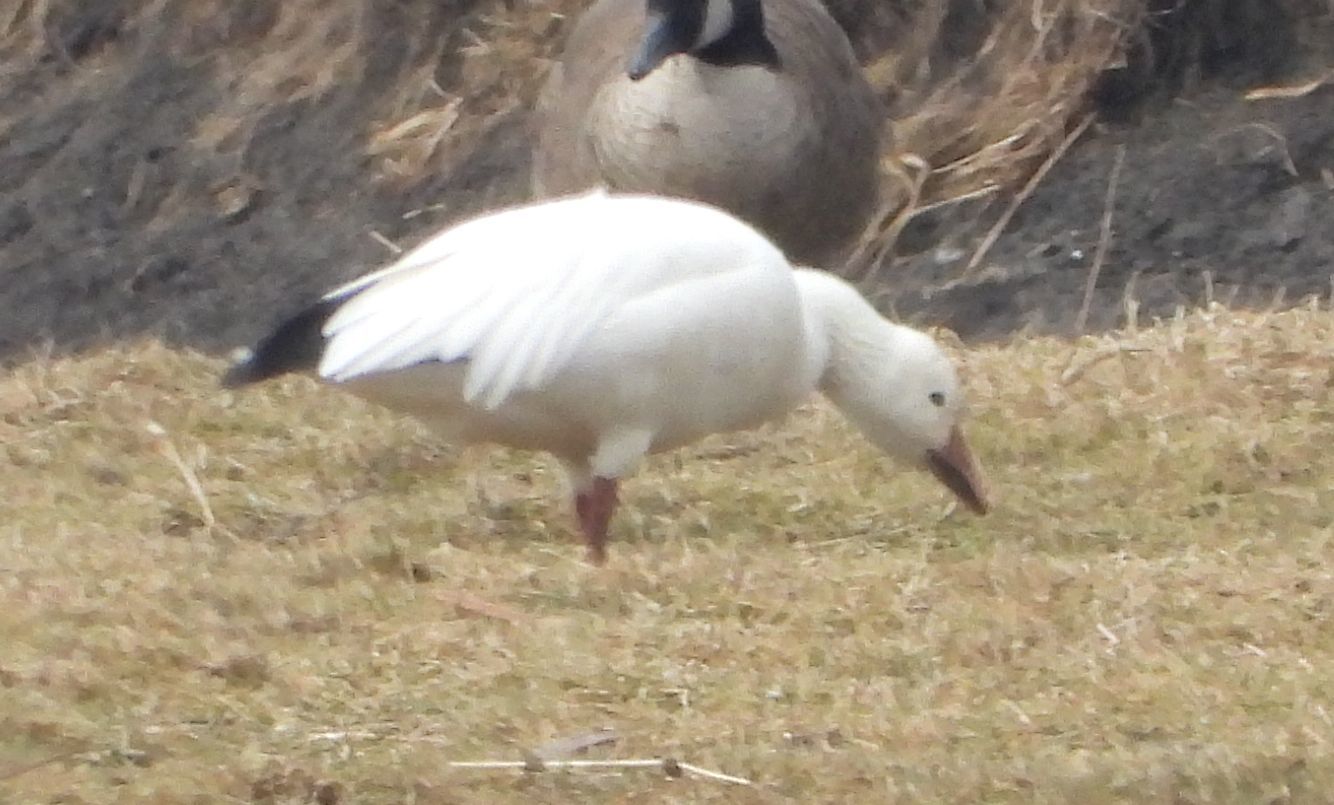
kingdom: Animalia
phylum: Chordata
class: Aves
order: Anseriformes
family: Anatidae
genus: Anser
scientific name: Anser caerulescens
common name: Snow goose
